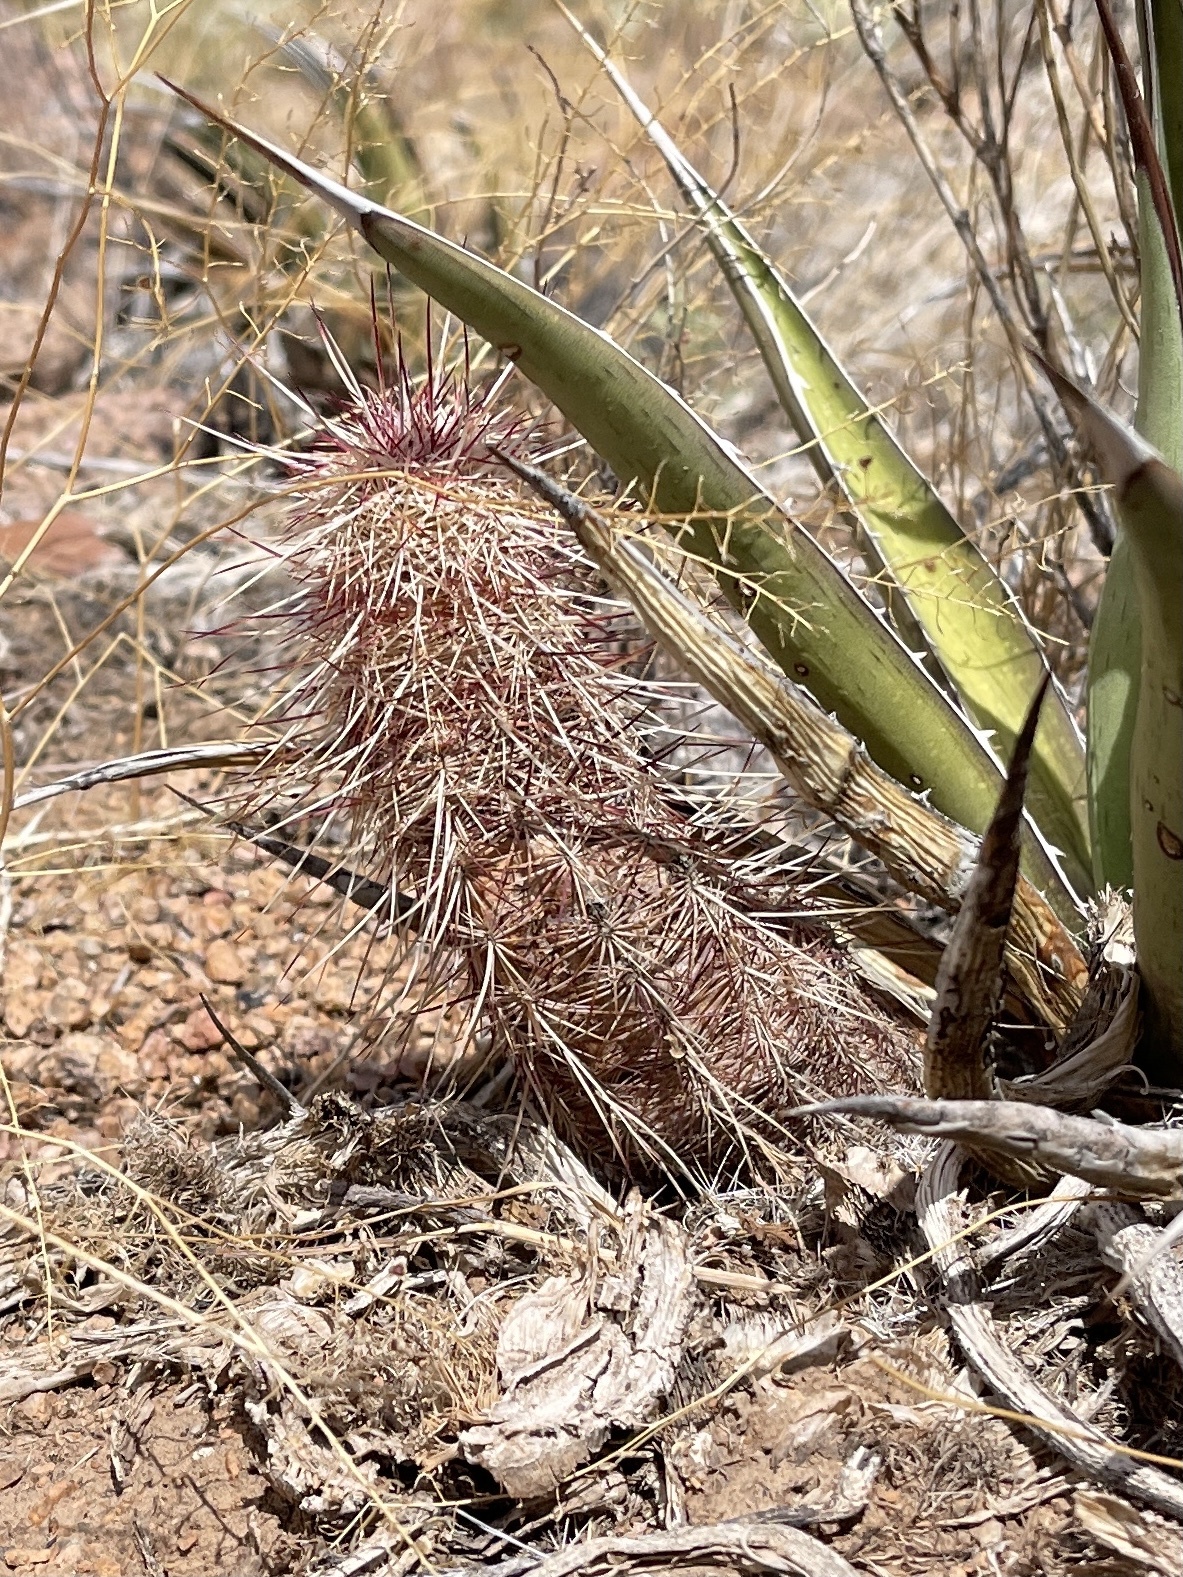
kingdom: Plantae
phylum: Tracheophyta
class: Magnoliopsida
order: Caryophyllales
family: Cactaceae
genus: Echinocereus
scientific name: Echinocereus viridiflorus
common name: Nylon hedgehog cactus
